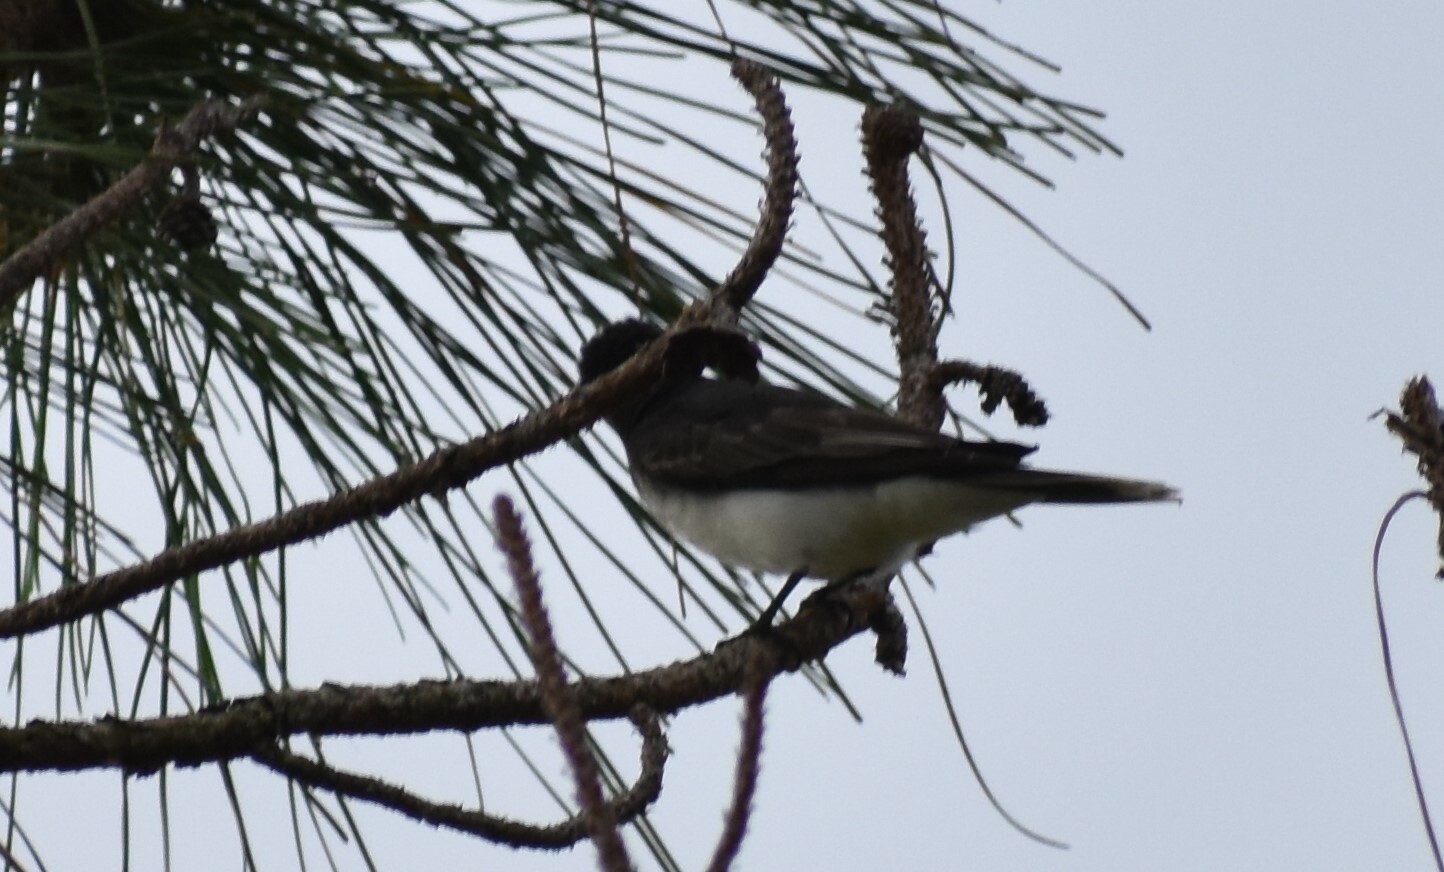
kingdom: Animalia
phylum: Chordata
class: Aves
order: Passeriformes
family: Tyrannidae
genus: Tyrannus
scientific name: Tyrannus tyrannus
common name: Eastern kingbird
